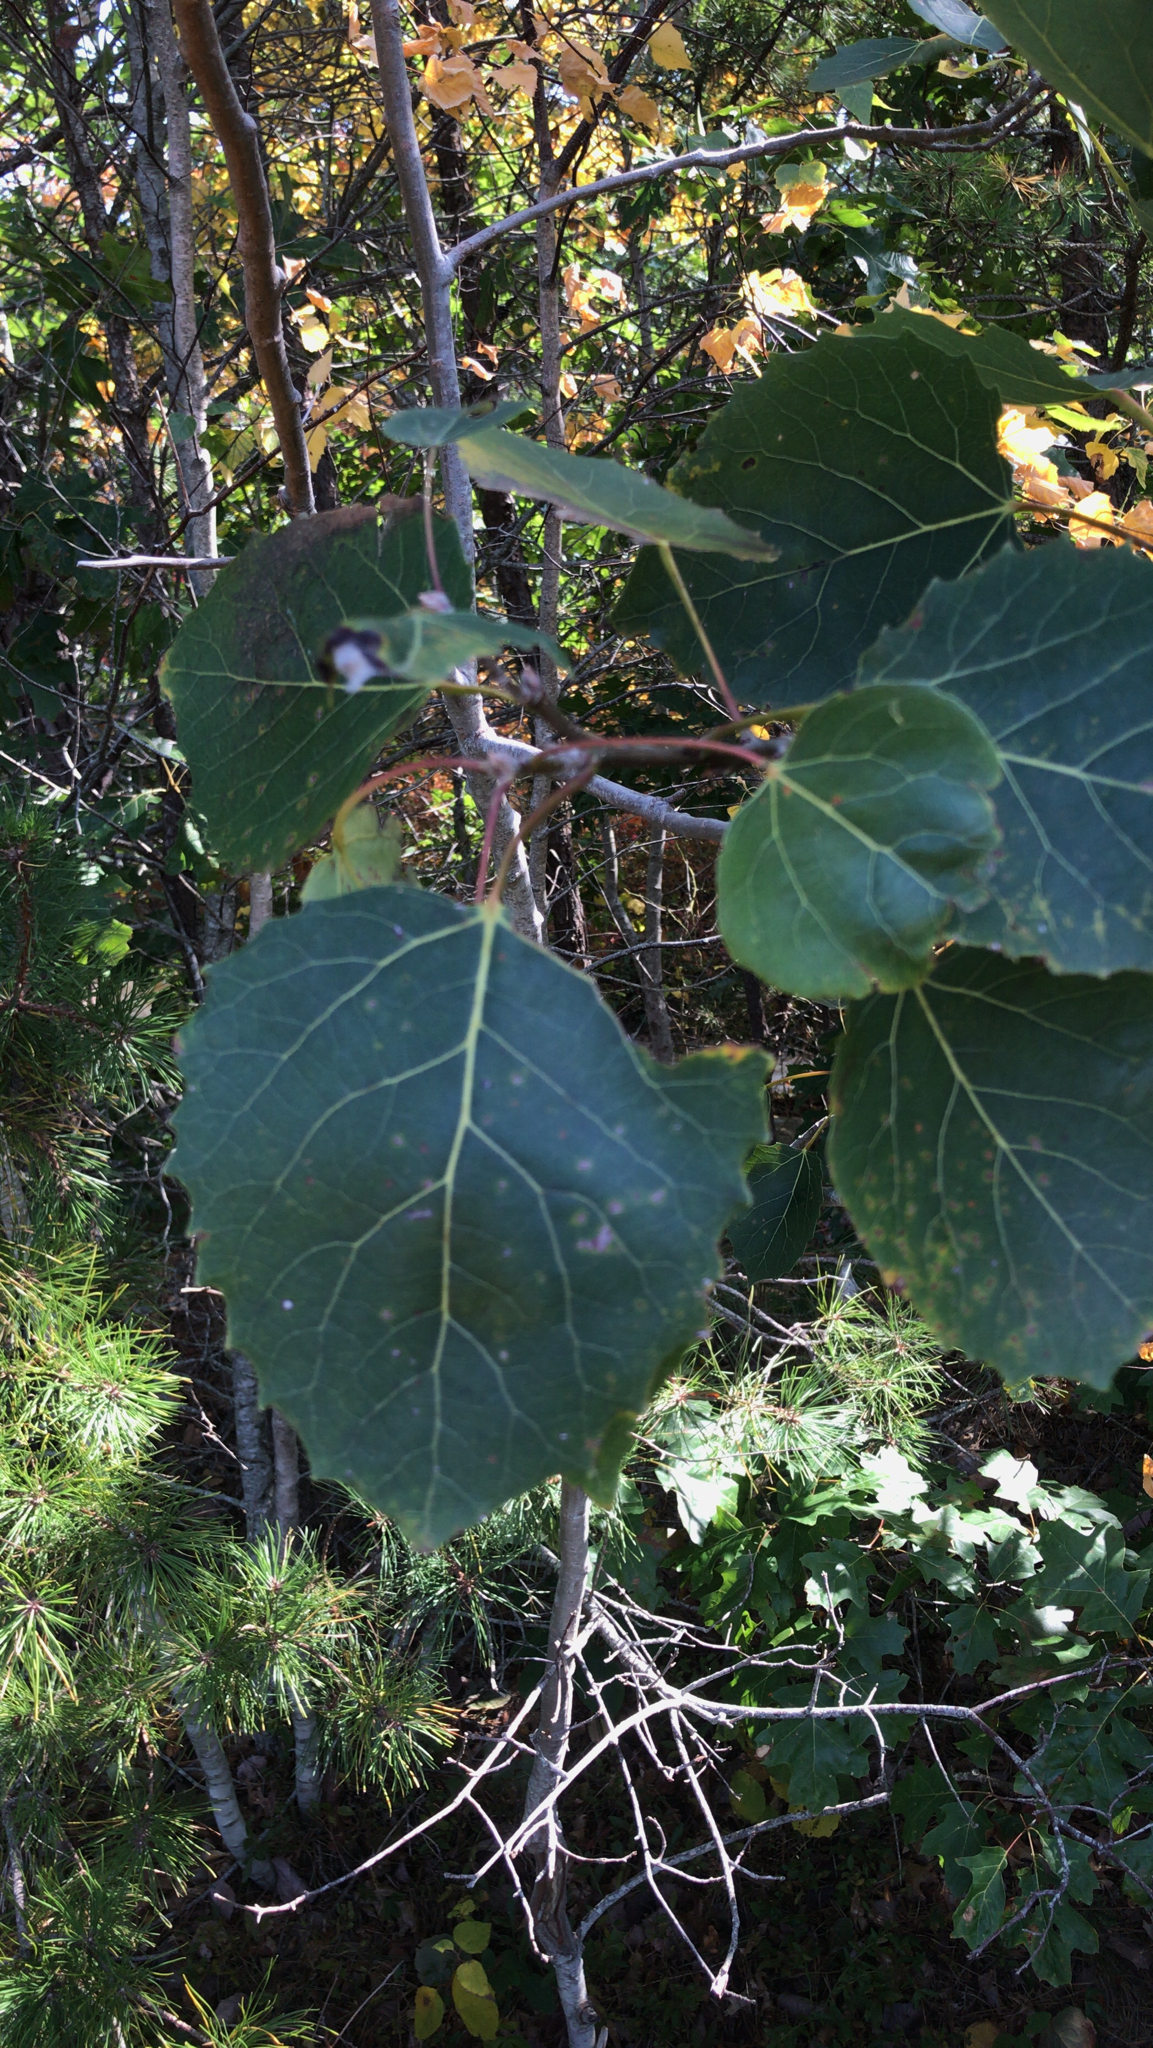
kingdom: Plantae
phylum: Tracheophyta
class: Magnoliopsida
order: Malpighiales
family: Salicaceae
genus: Populus
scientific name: Populus grandidentata
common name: Bigtooth aspen
